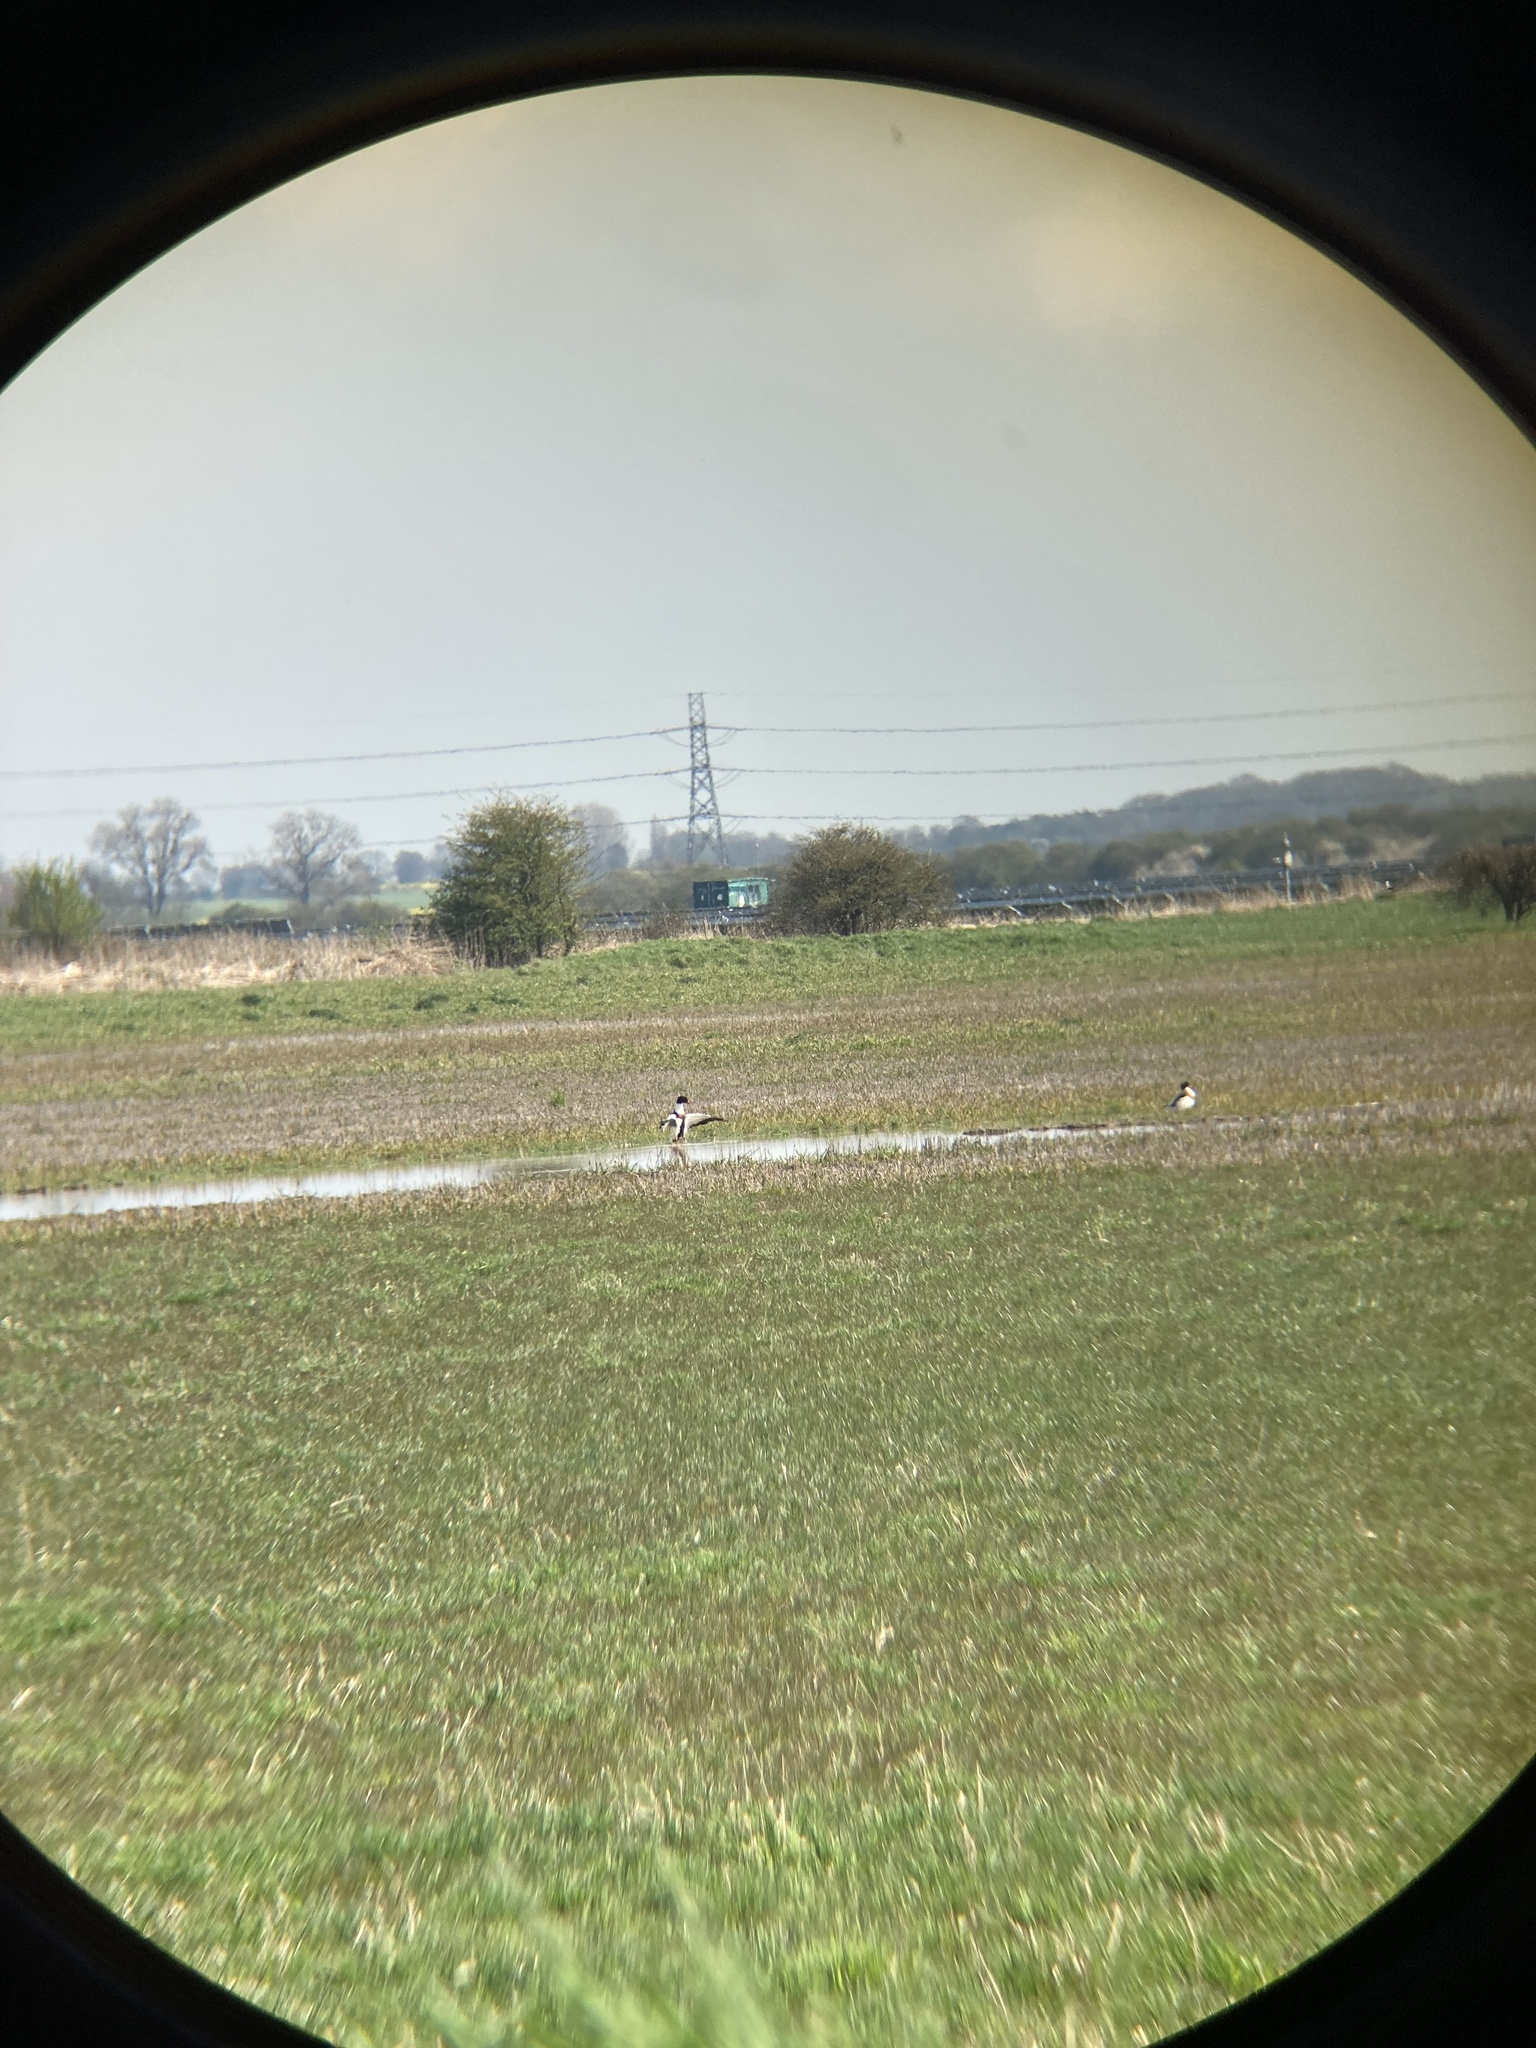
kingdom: Animalia
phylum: Chordata
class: Aves
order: Anseriformes
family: Anatidae
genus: Tadorna
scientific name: Tadorna tadorna
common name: Common shelduck
